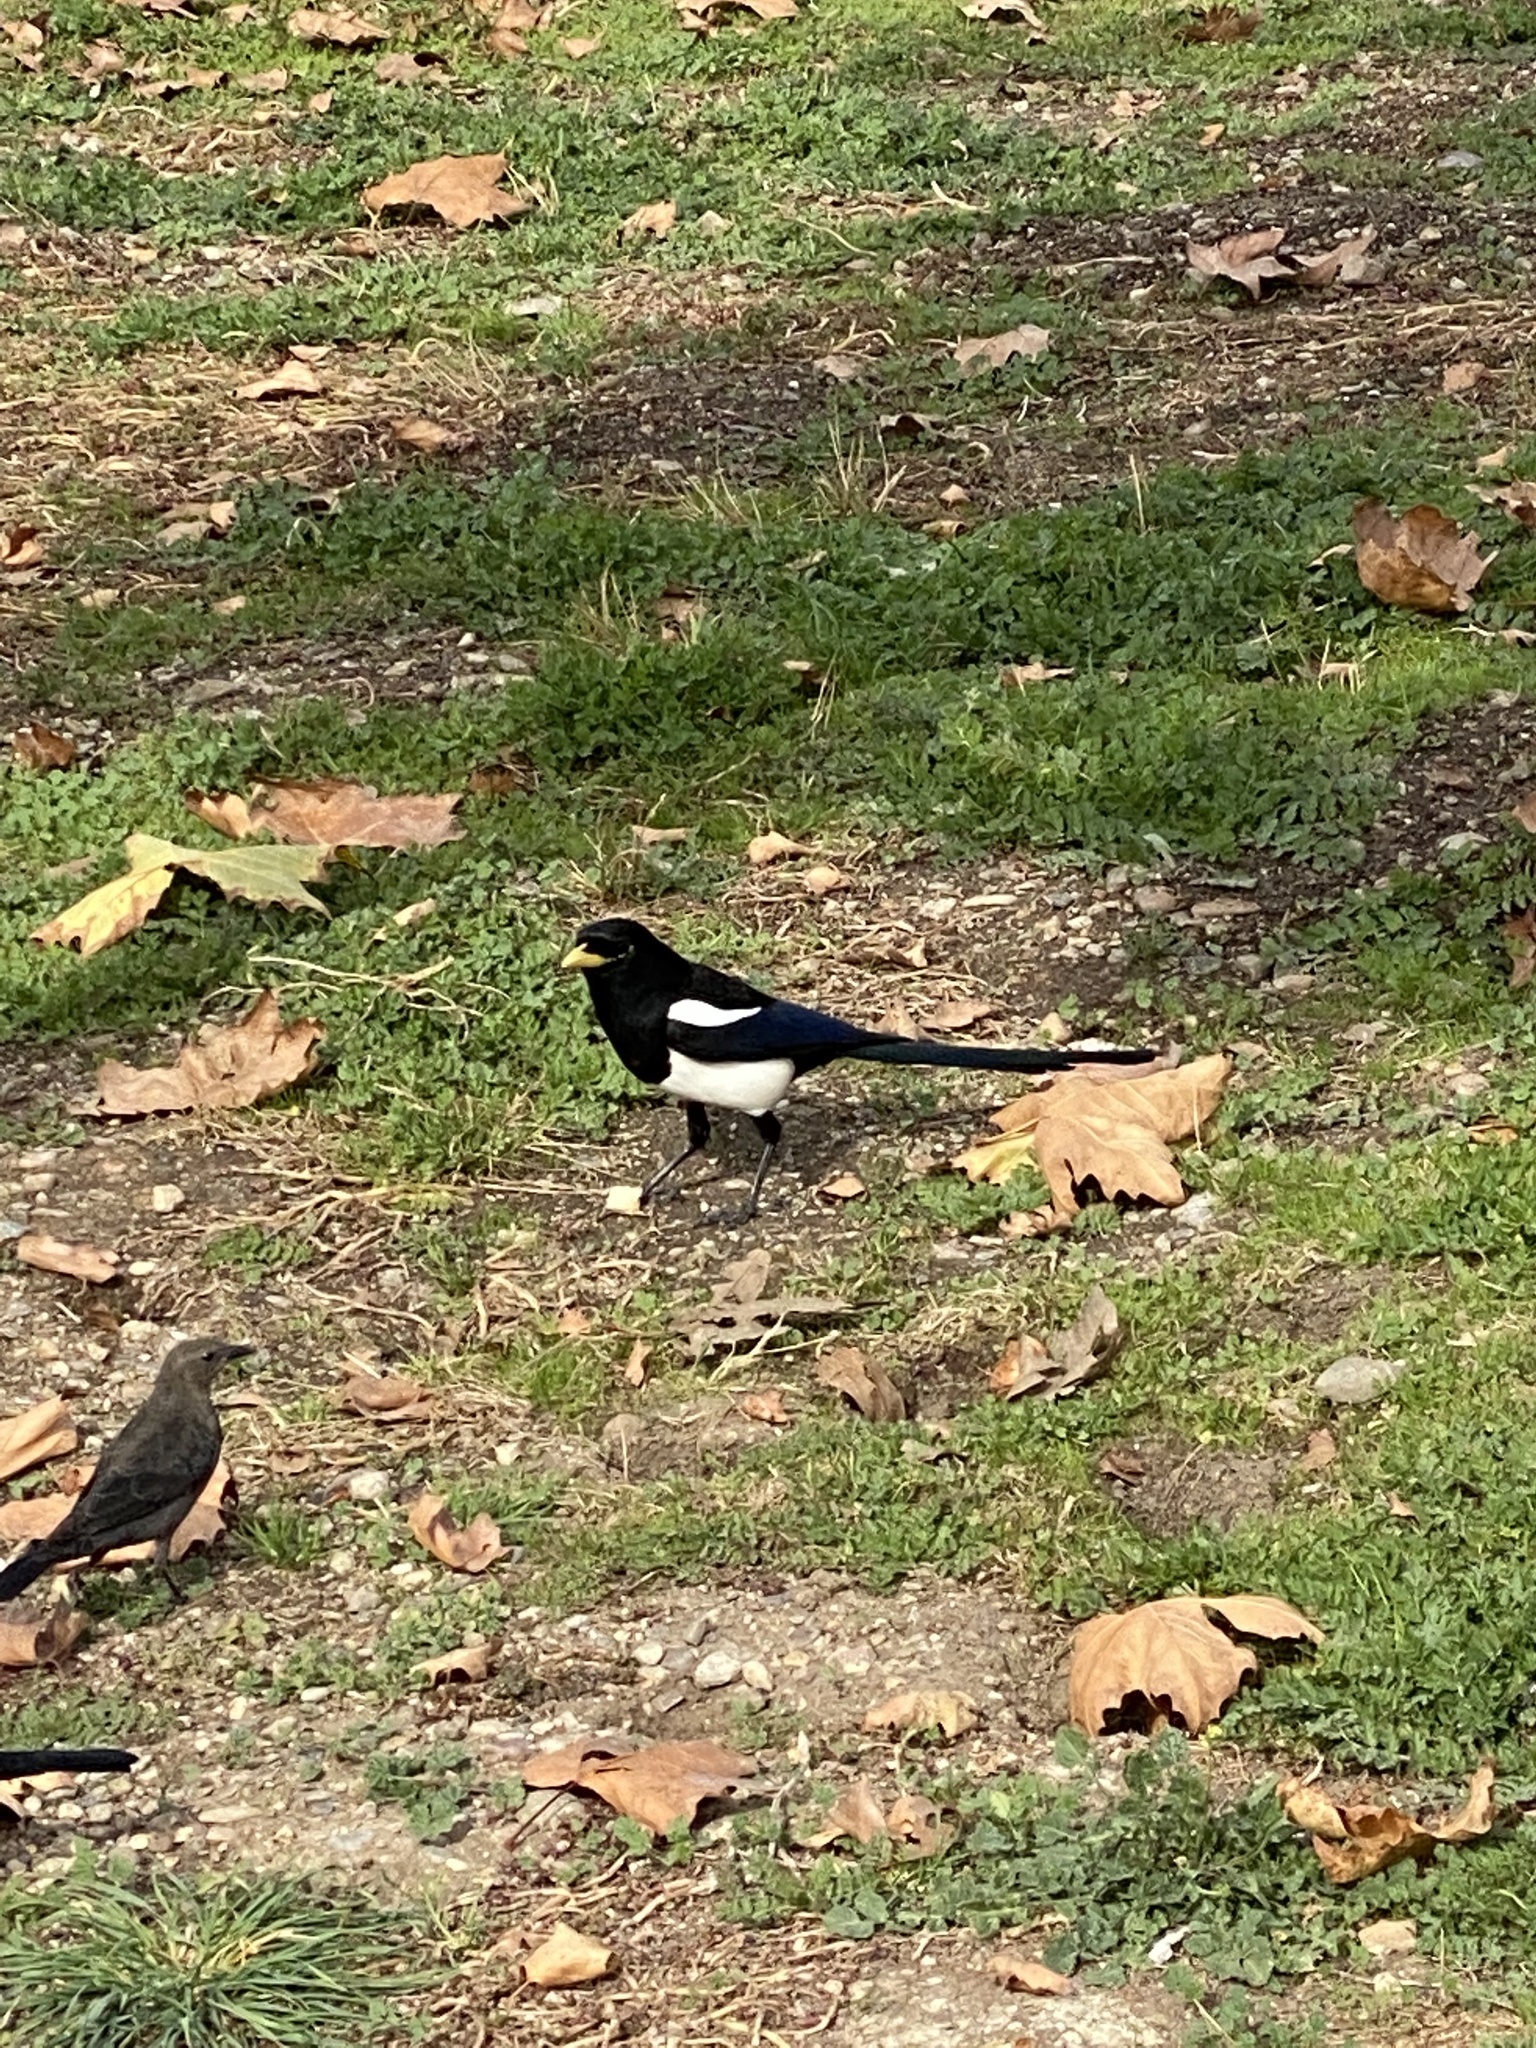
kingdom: Animalia
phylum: Chordata
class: Aves
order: Passeriformes
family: Corvidae
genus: Pica
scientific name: Pica nuttalli
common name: Yellow-billed magpie
